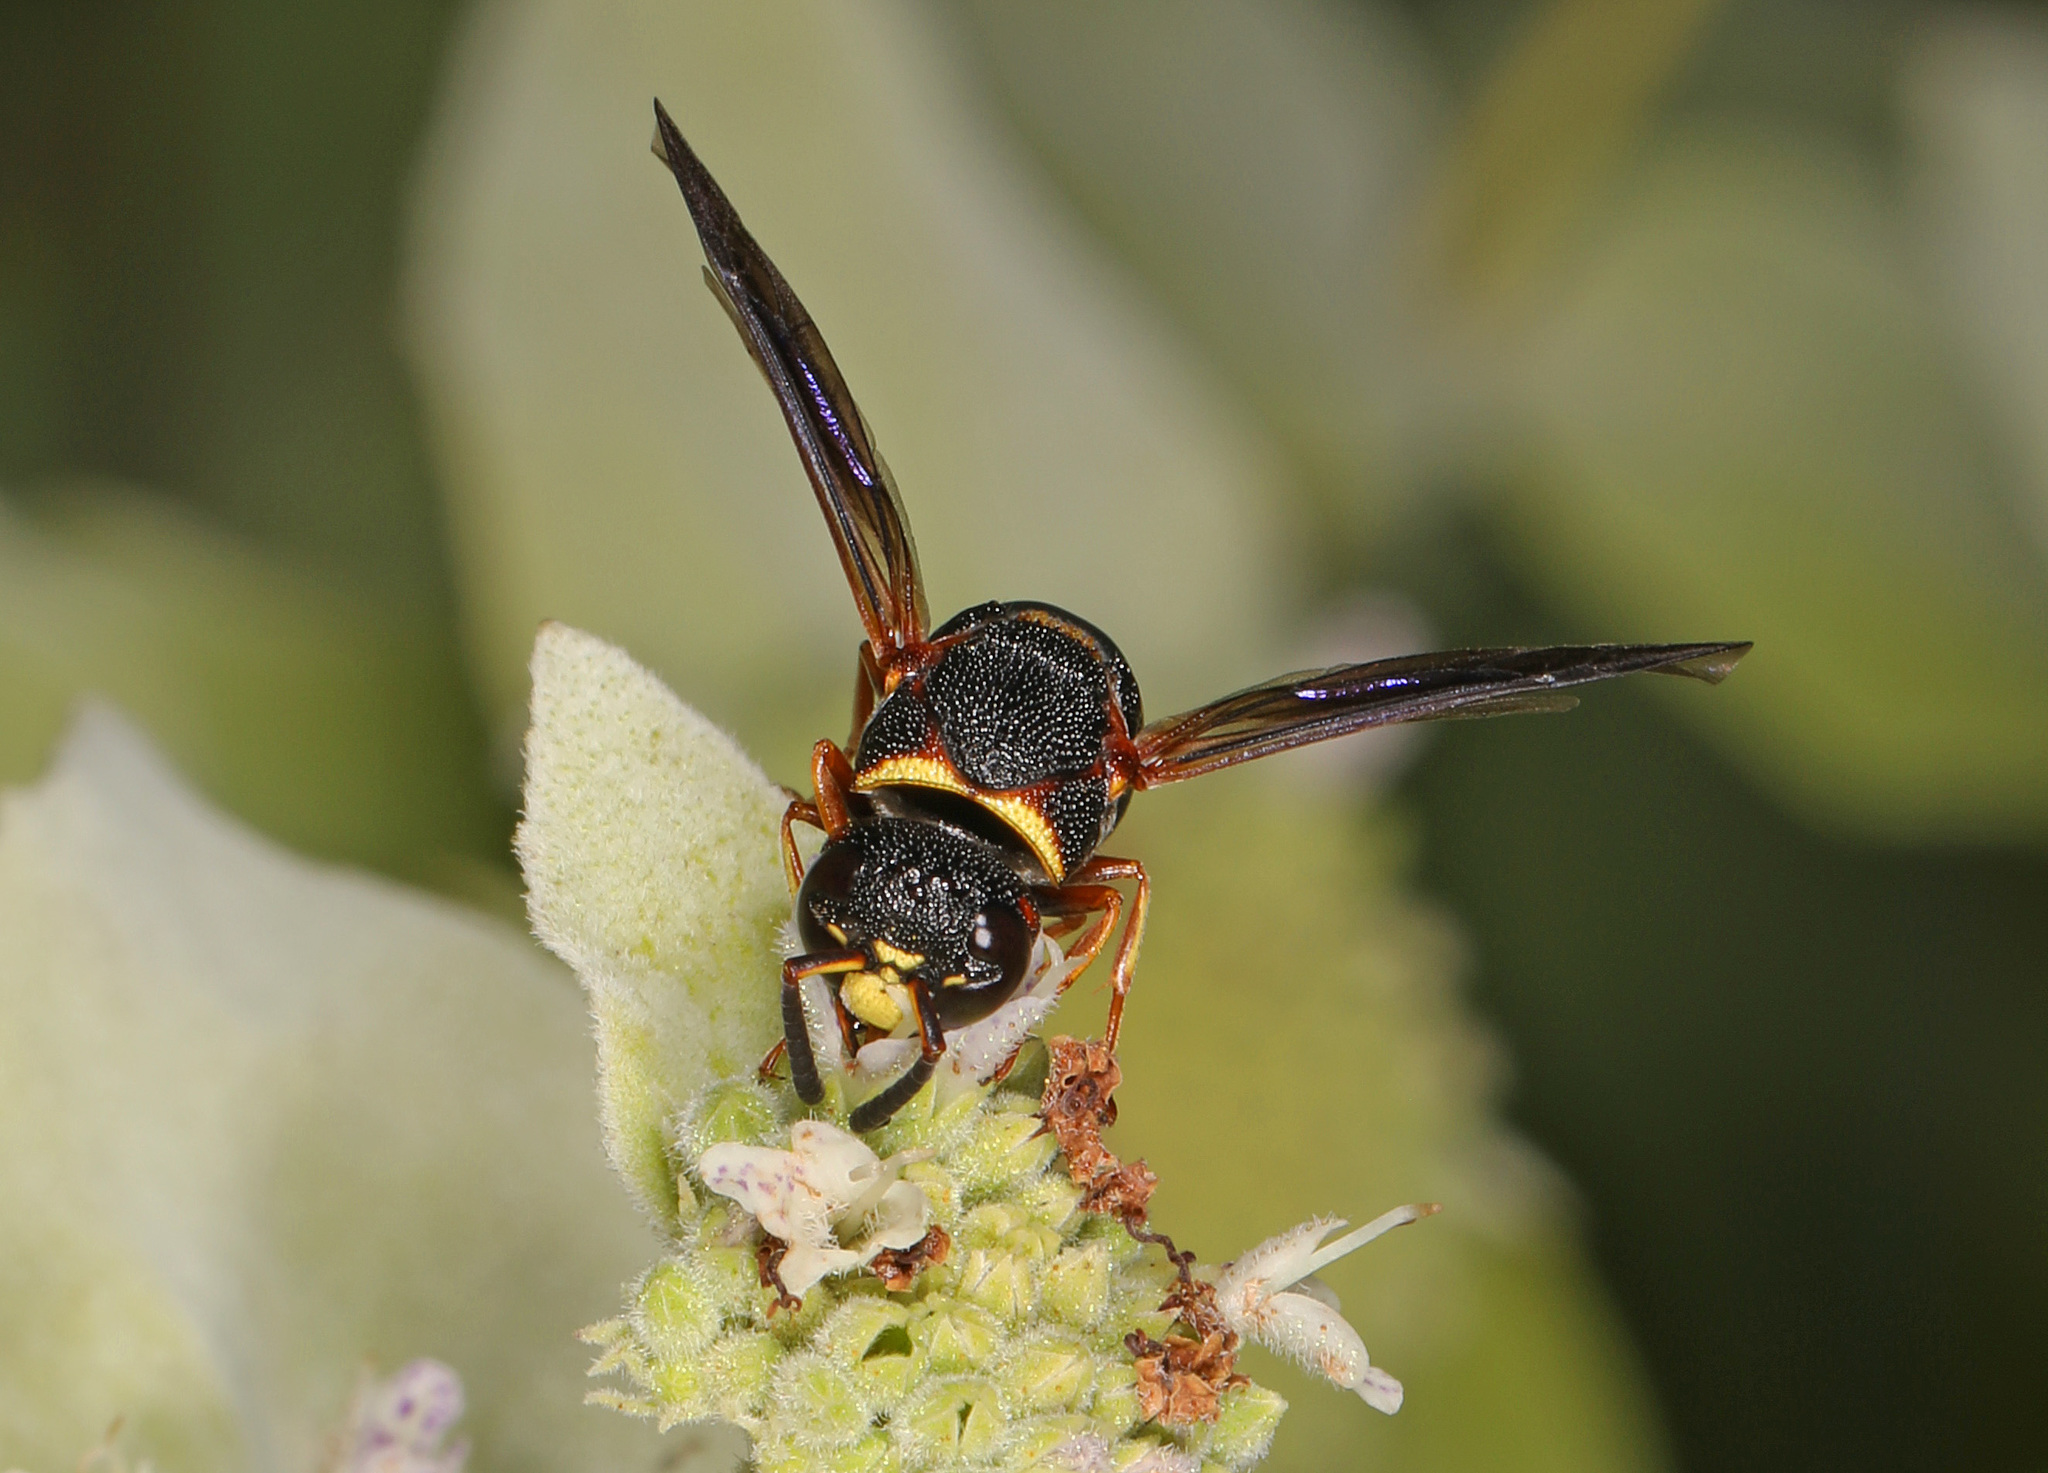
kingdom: Animalia
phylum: Arthropoda
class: Insecta
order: Hymenoptera
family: Eumenidae
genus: Euodynerus
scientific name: Euodynerus hidalgo
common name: Wasp
